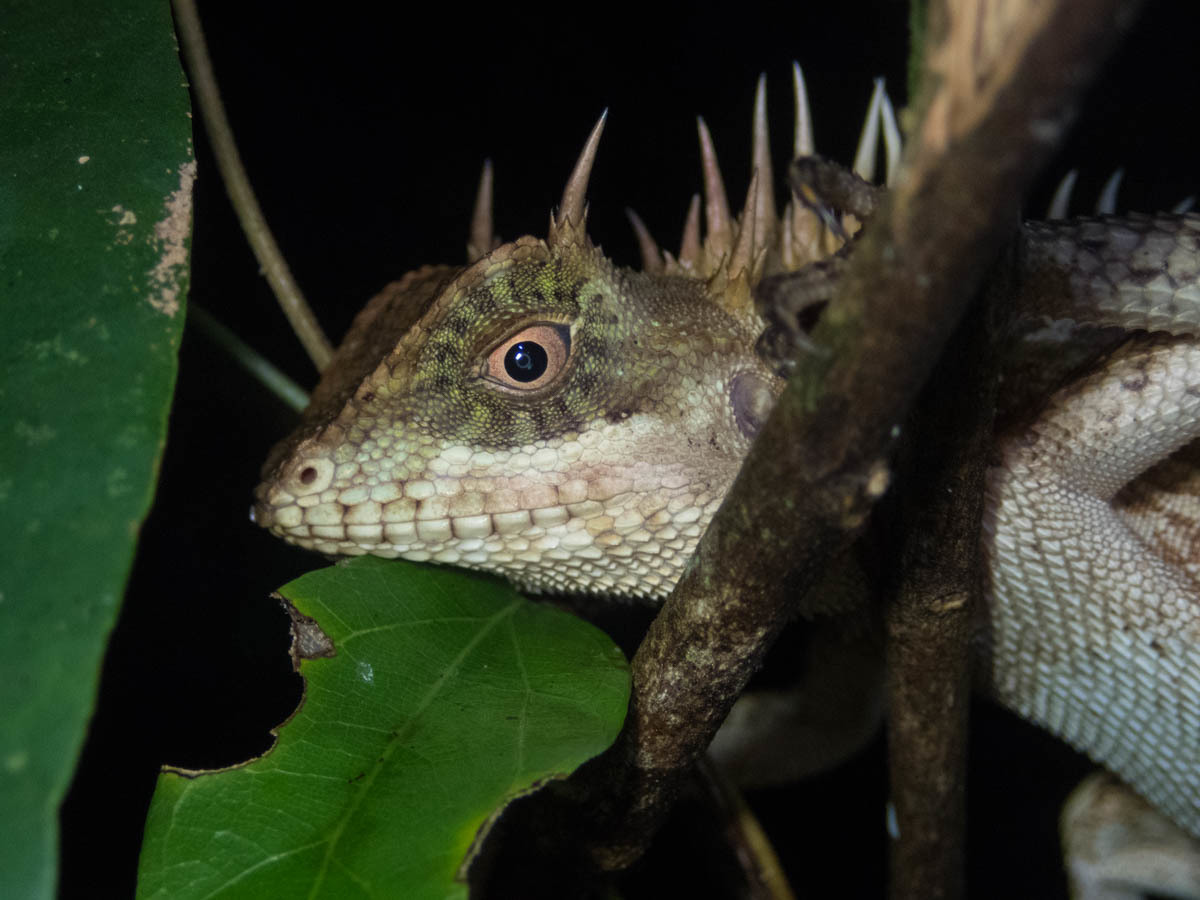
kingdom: Animalia
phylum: Chordata
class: Squamata
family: Agamidae
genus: Acanthosaura
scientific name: Acanthosaura cardamomensis
